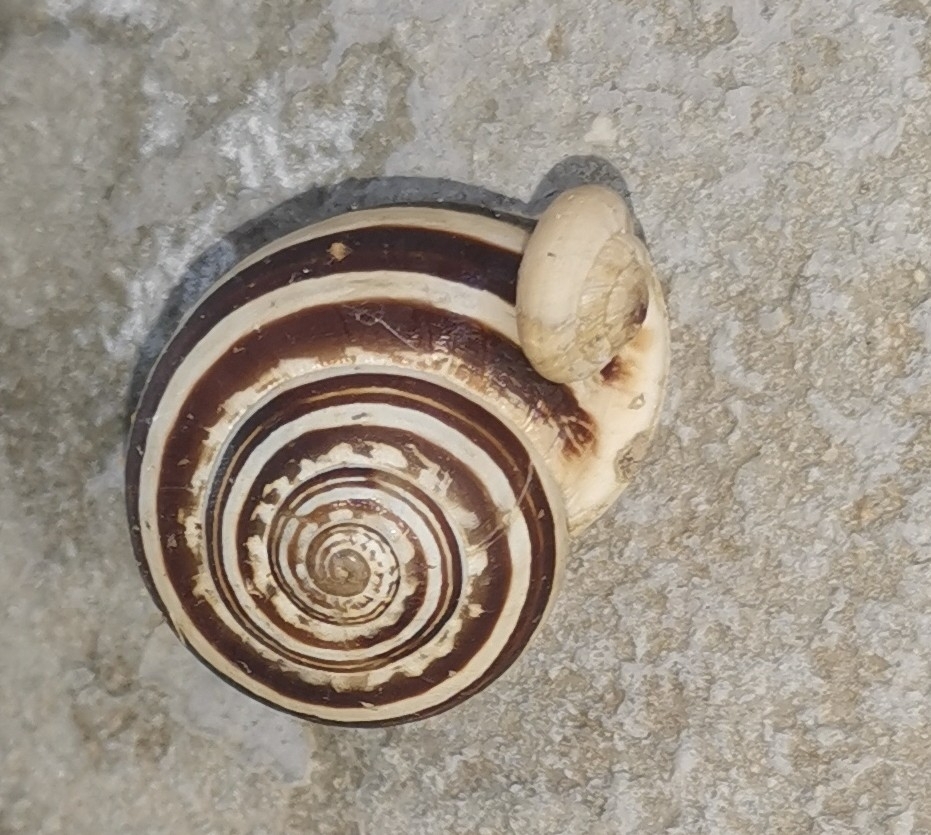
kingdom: Animalia
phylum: Mollusca
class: Gastropoda
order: Stylommatophora
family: Helicidae
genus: Eobania
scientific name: Eobania vermiculata
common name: Chocolateband snail
